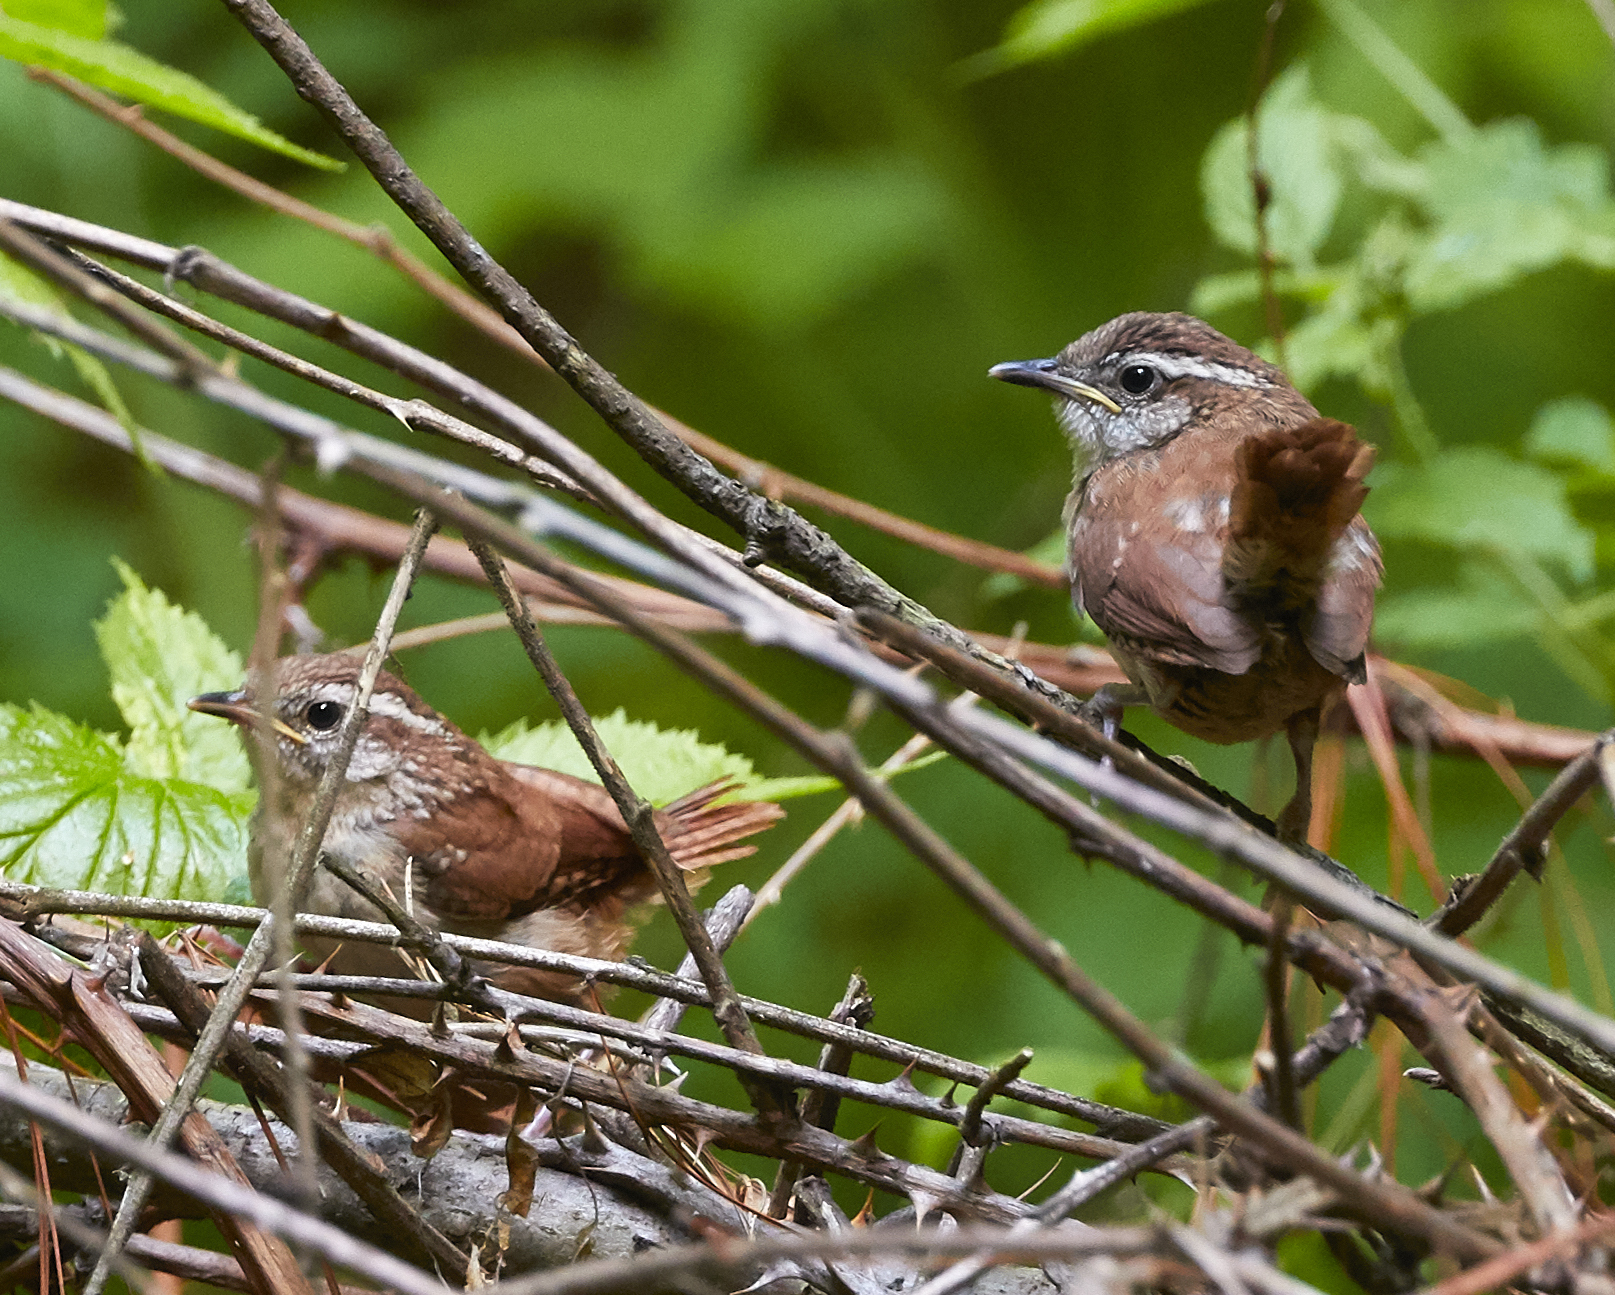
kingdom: Animalia
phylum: Chordata
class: Aves
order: Passeriformes
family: Troglodytidae
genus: Thryothorus
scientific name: Thryothorus ludovicianus
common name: Carolina wren
